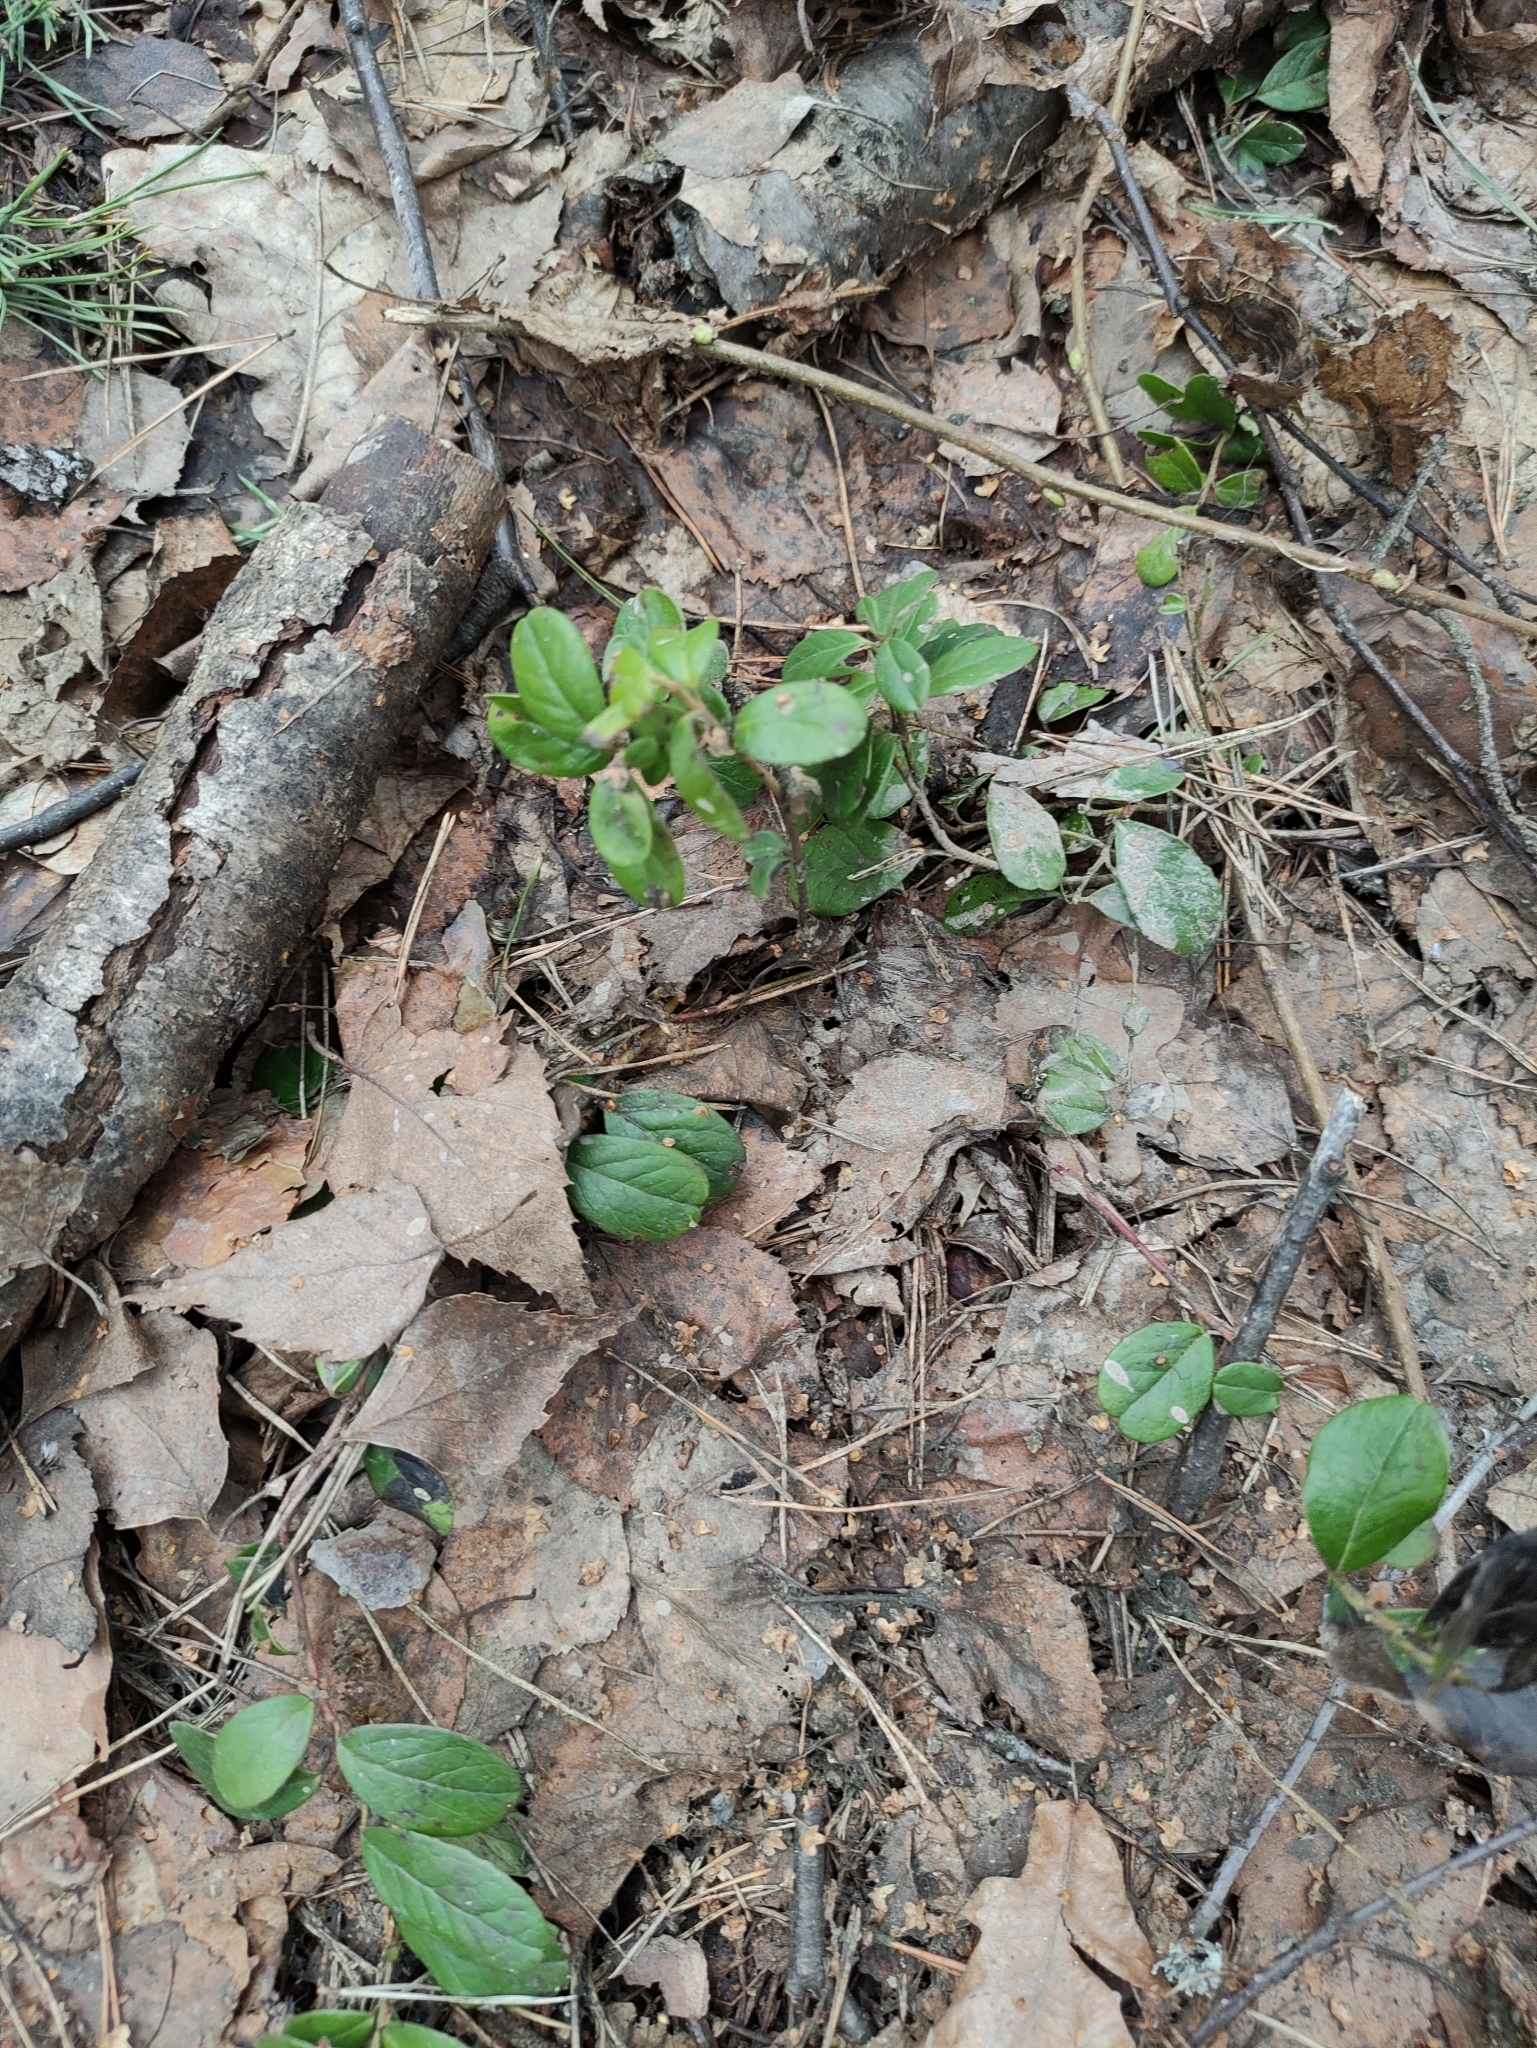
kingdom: Plantae
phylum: Tracheophyta
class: Magnoliopsida
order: Ericales
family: Ericaceae
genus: Vaccinium
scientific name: Vaccinium vitis-idaea
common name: Cowberry
